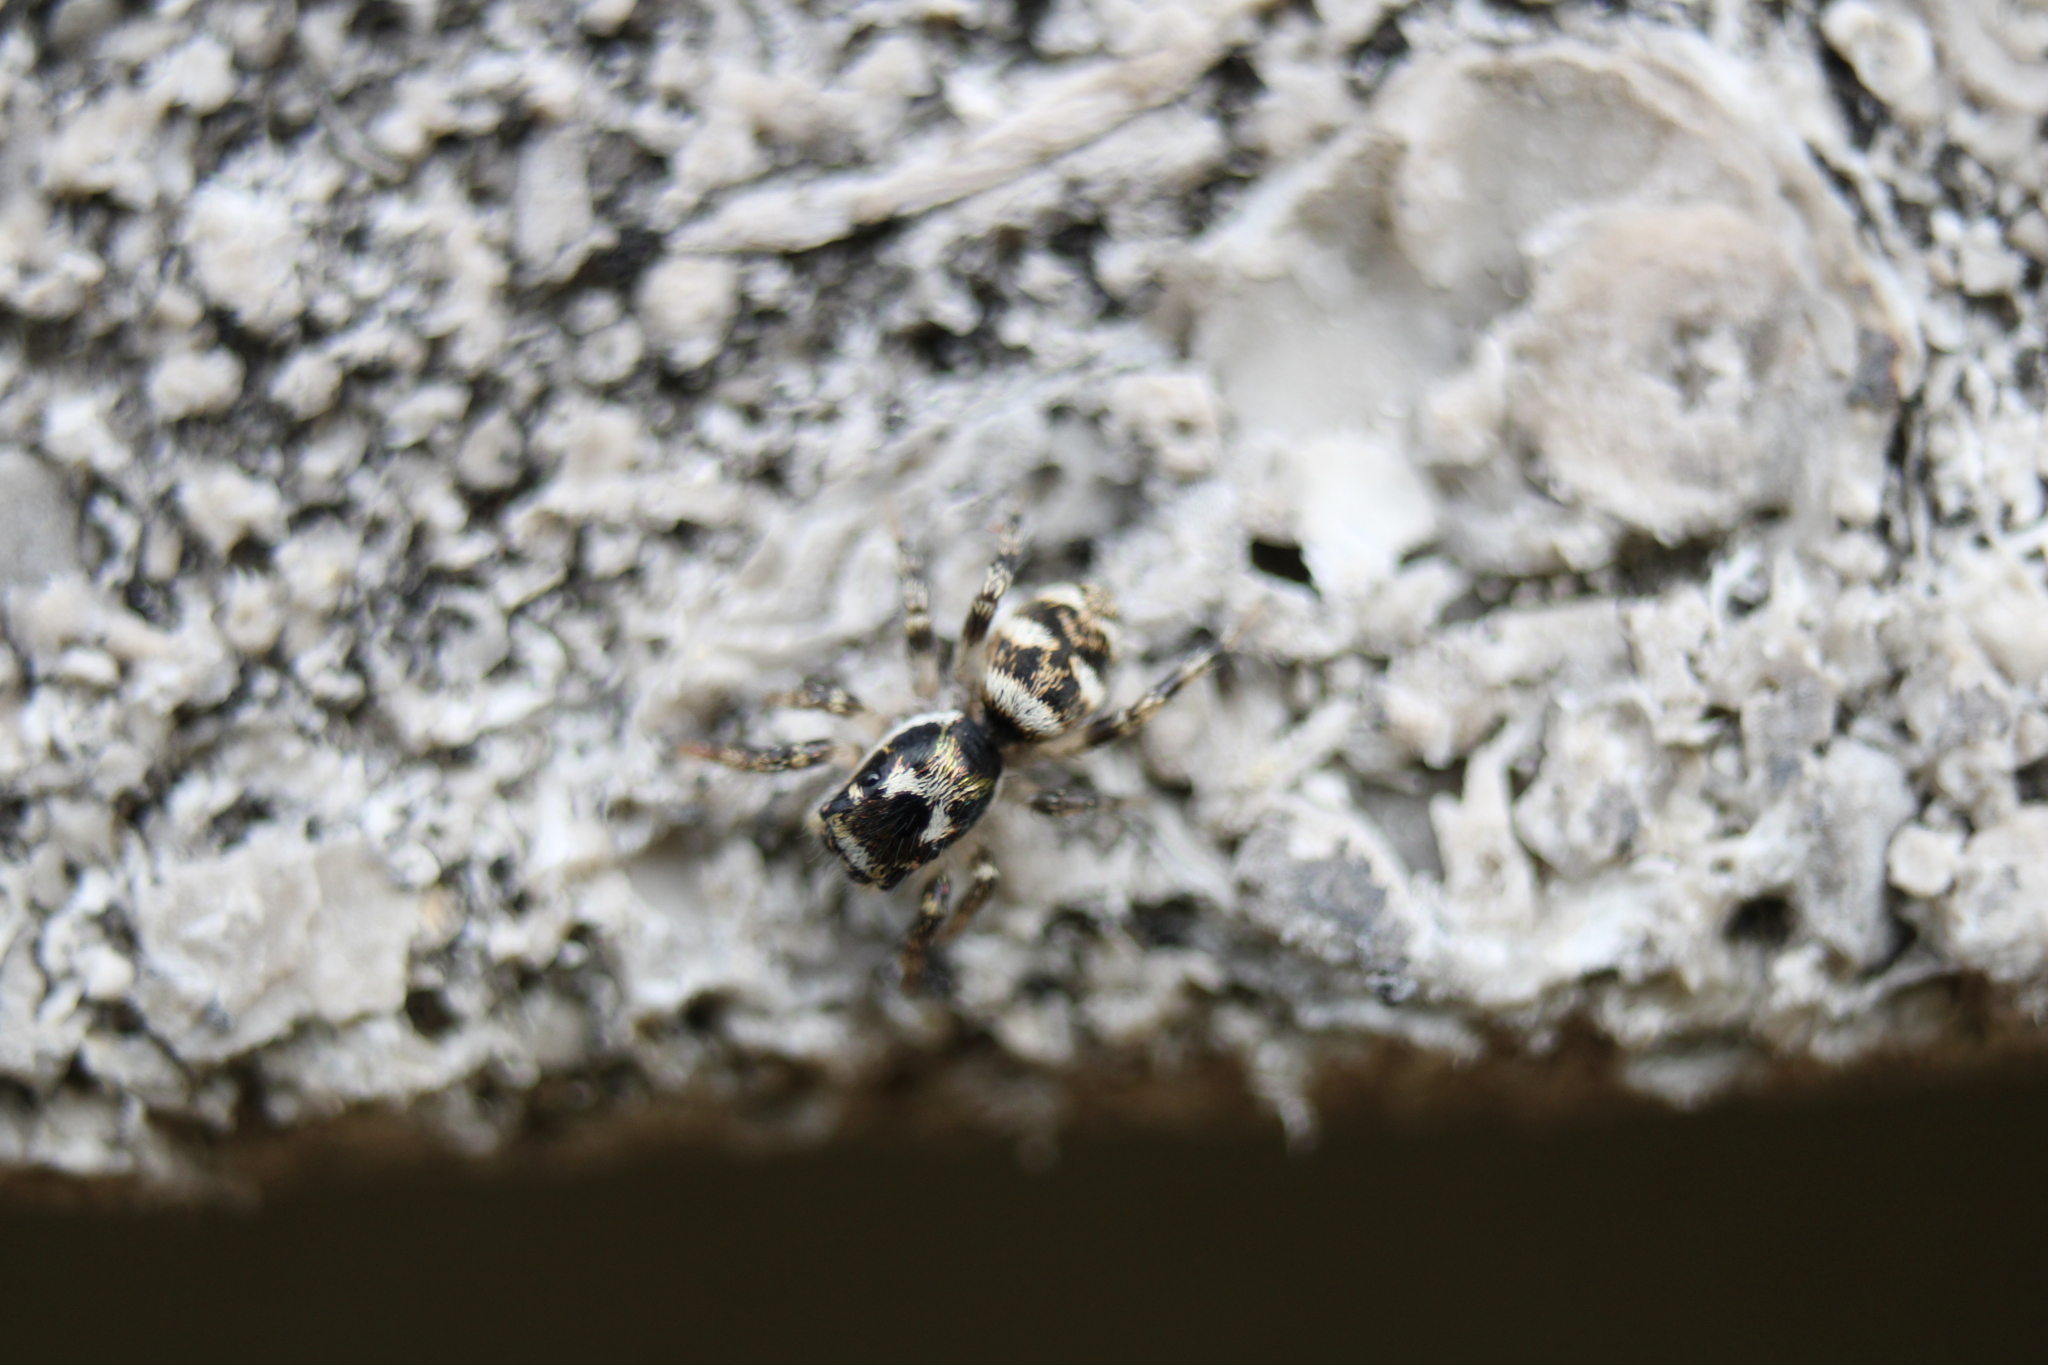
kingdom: Animalia
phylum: Arthropoda
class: Arachnida
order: Araneae
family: Salticidae
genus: Salticus
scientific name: Salticus scenicus
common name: Zebra jumper
